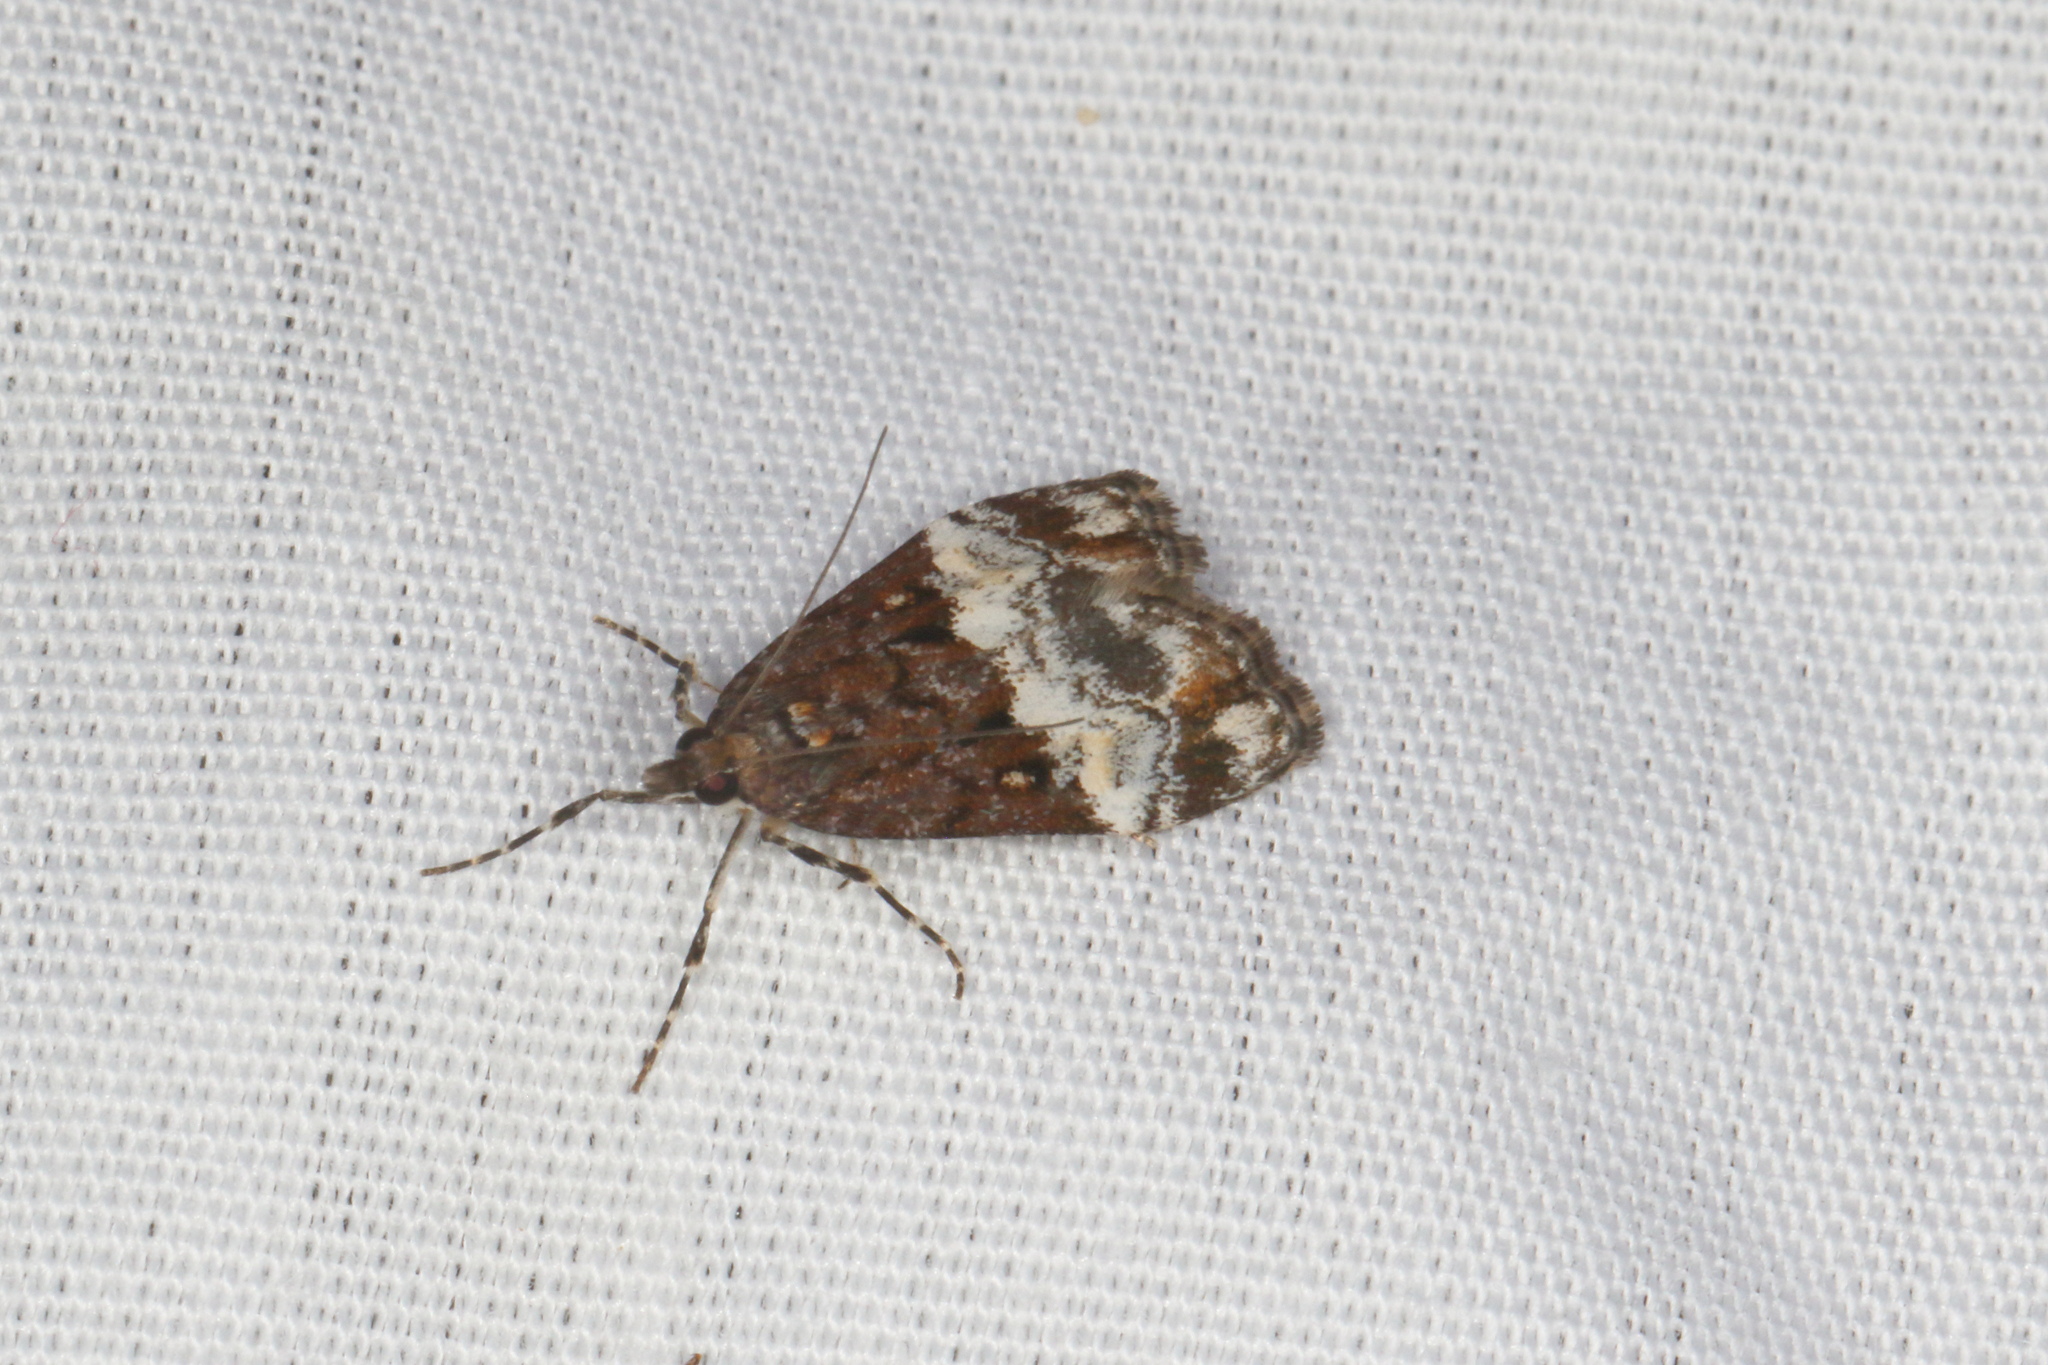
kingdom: Animalia
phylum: Arthropoda
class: Insecta
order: Lepidoptera
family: Crambidae
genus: Scoparia
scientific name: Scoparia minusculalis
